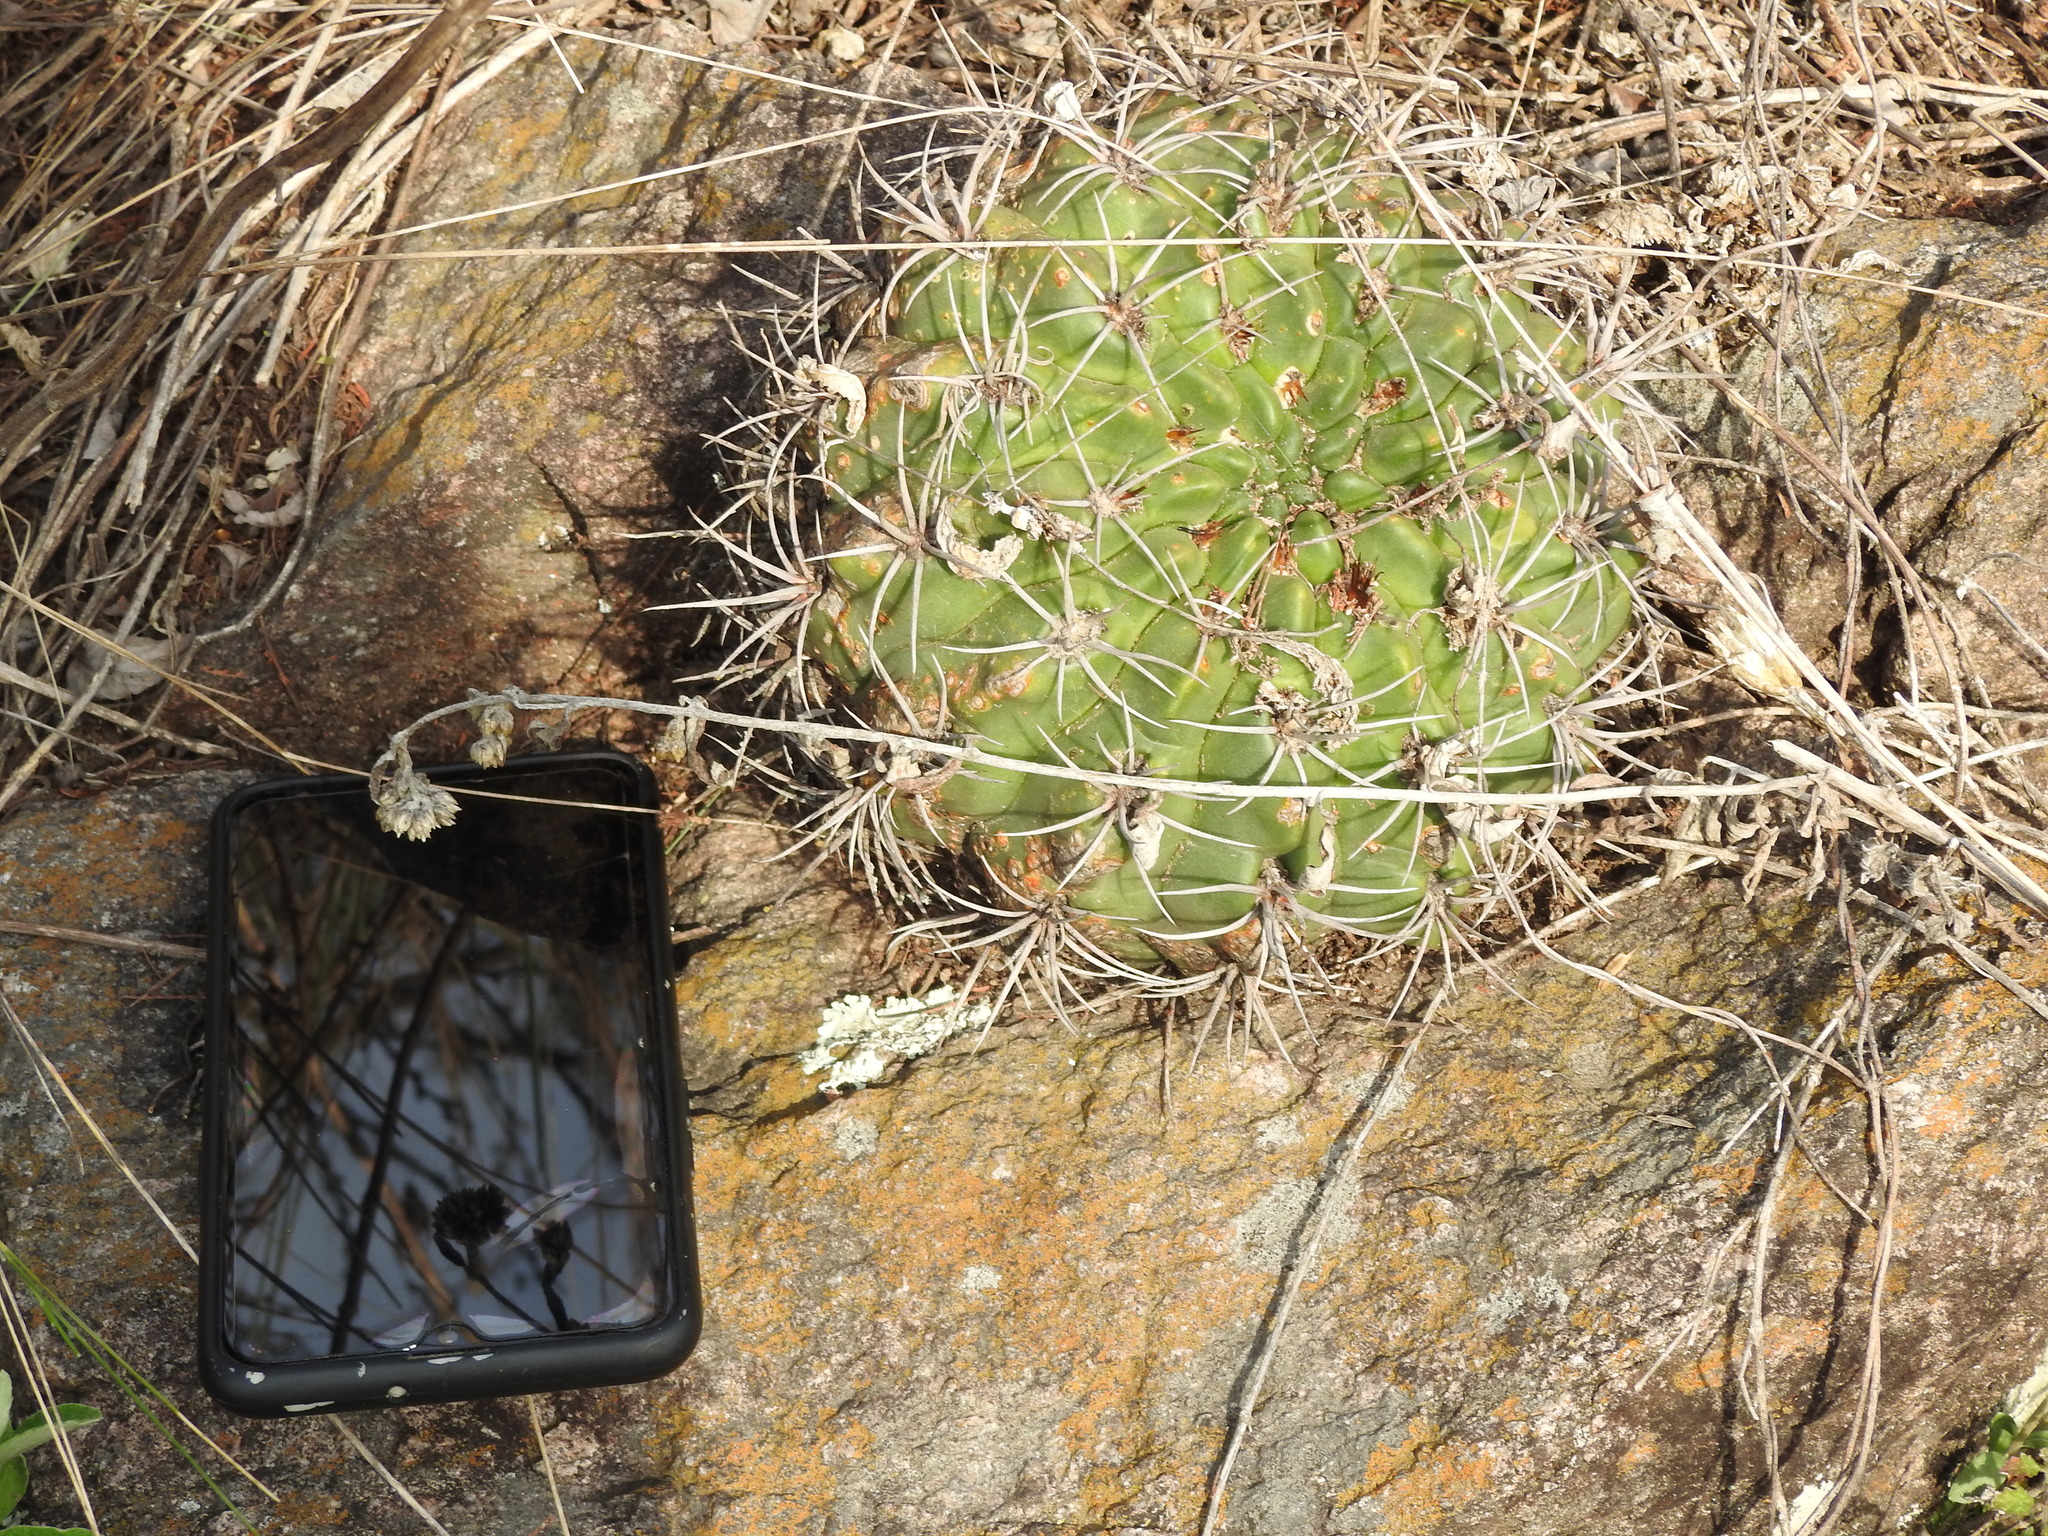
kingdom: Plantae
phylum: Tracheophyta
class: Magnoliopsida
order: Caryophyllales
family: Cactaceae
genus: Gymnocalycium
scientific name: Gymnocalycium mostii
